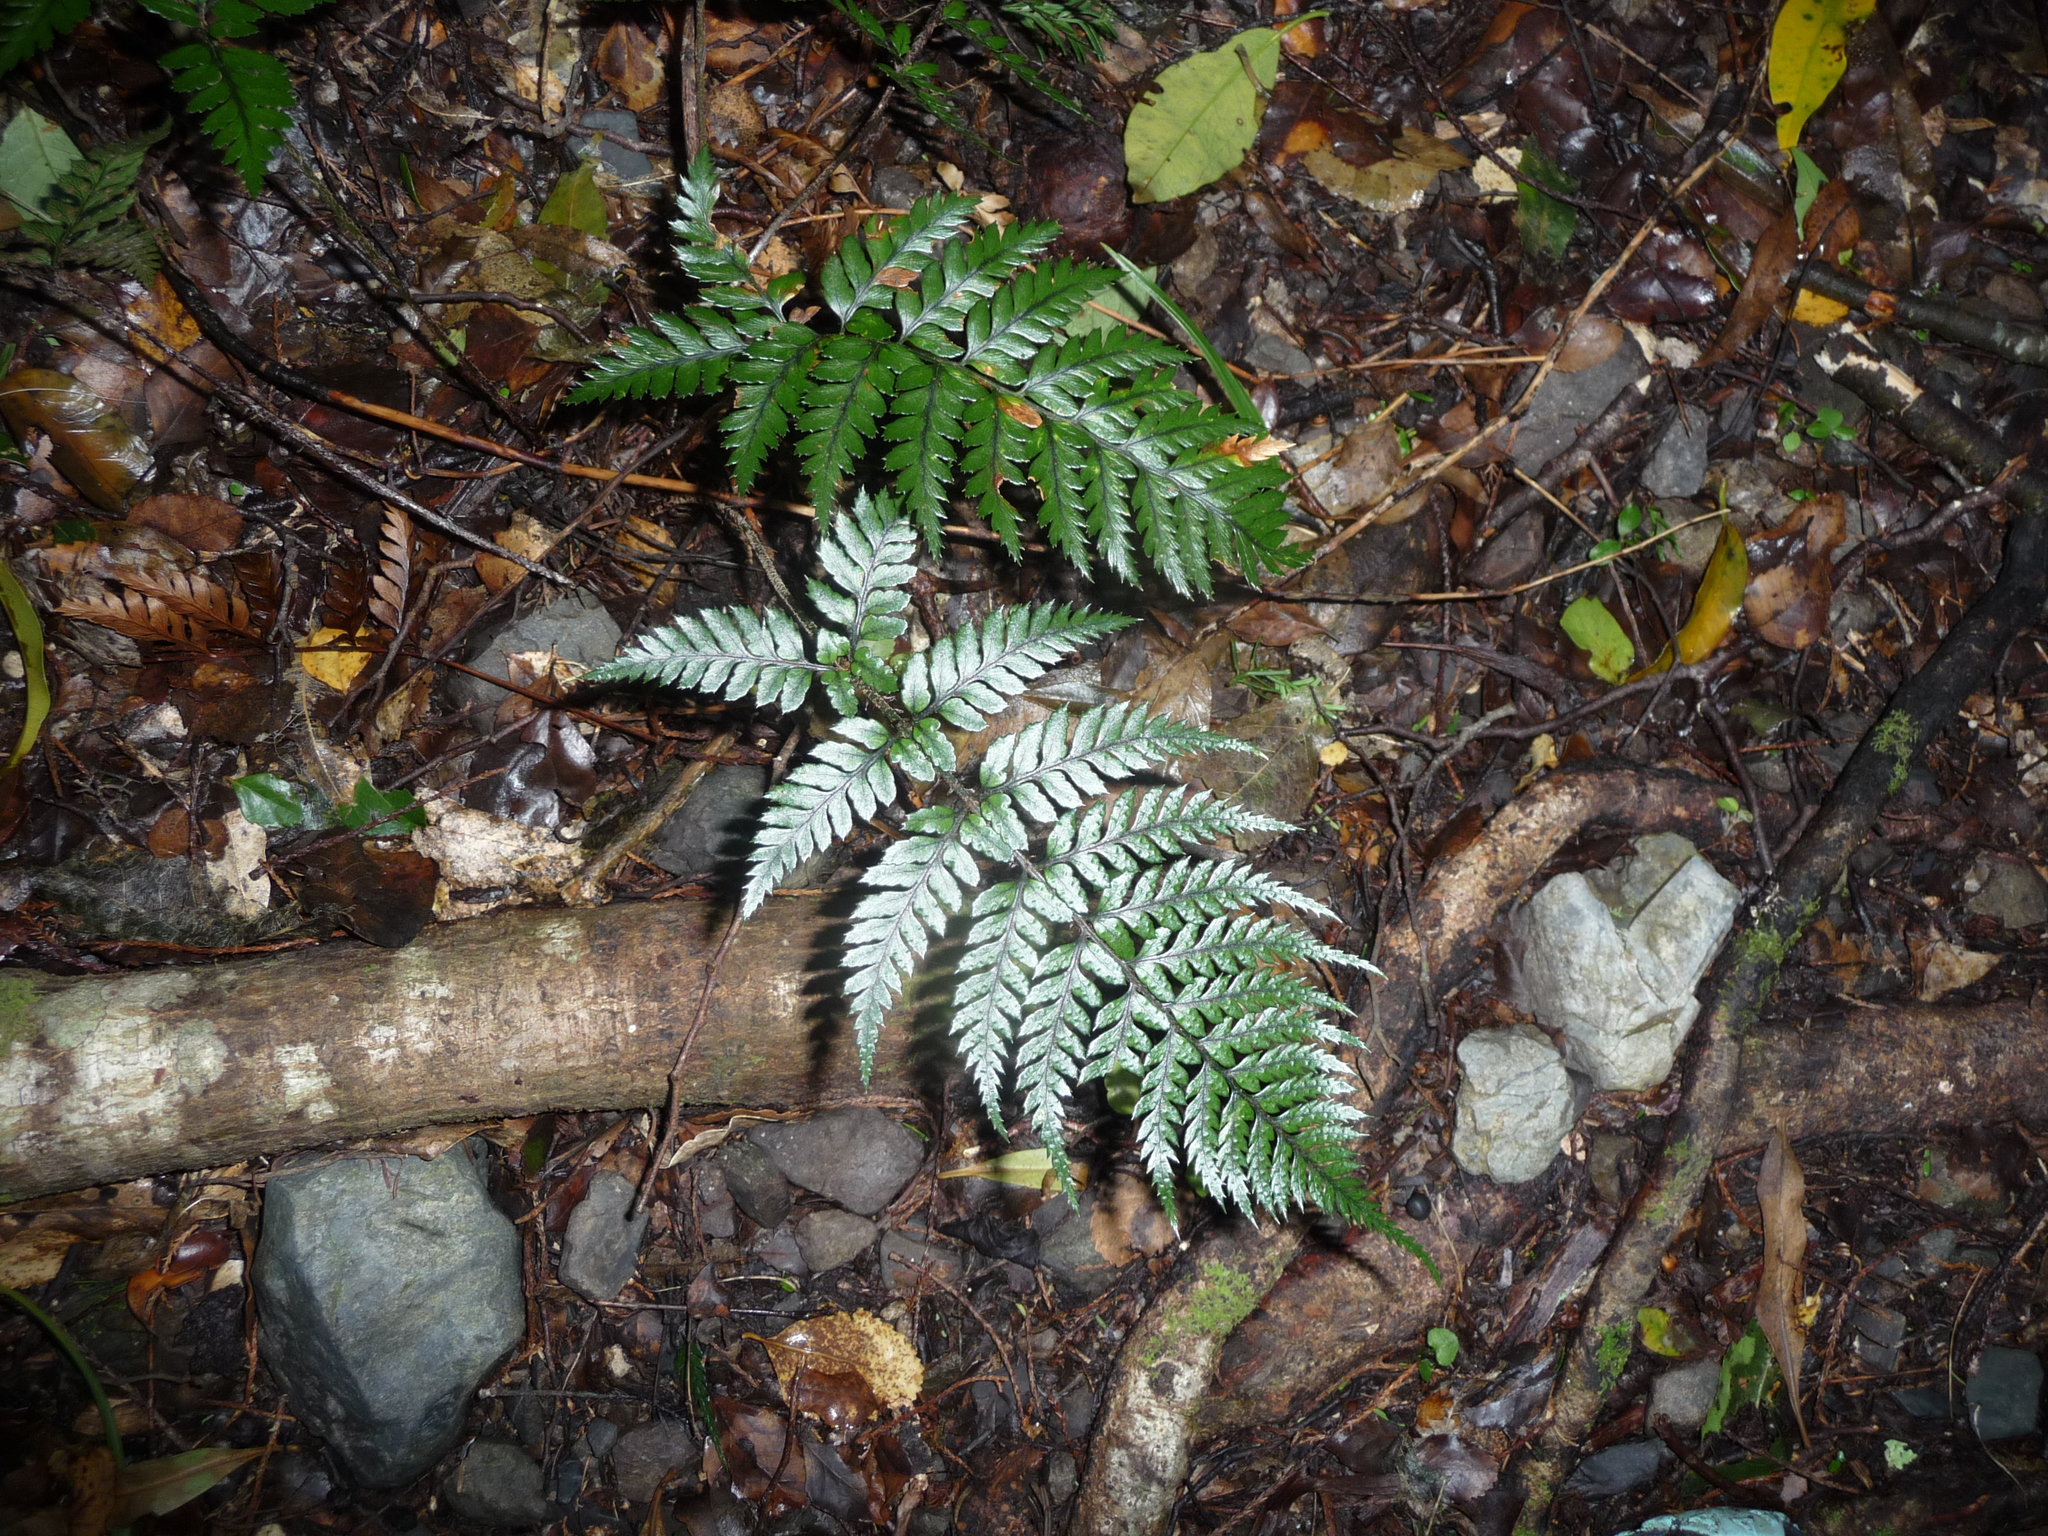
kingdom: Plantae
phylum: Tracheophyta
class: Polypodiopsida
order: Polypodiales
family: Dryopteridaceae
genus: Polystichum
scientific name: Polystichum neozelandicum
